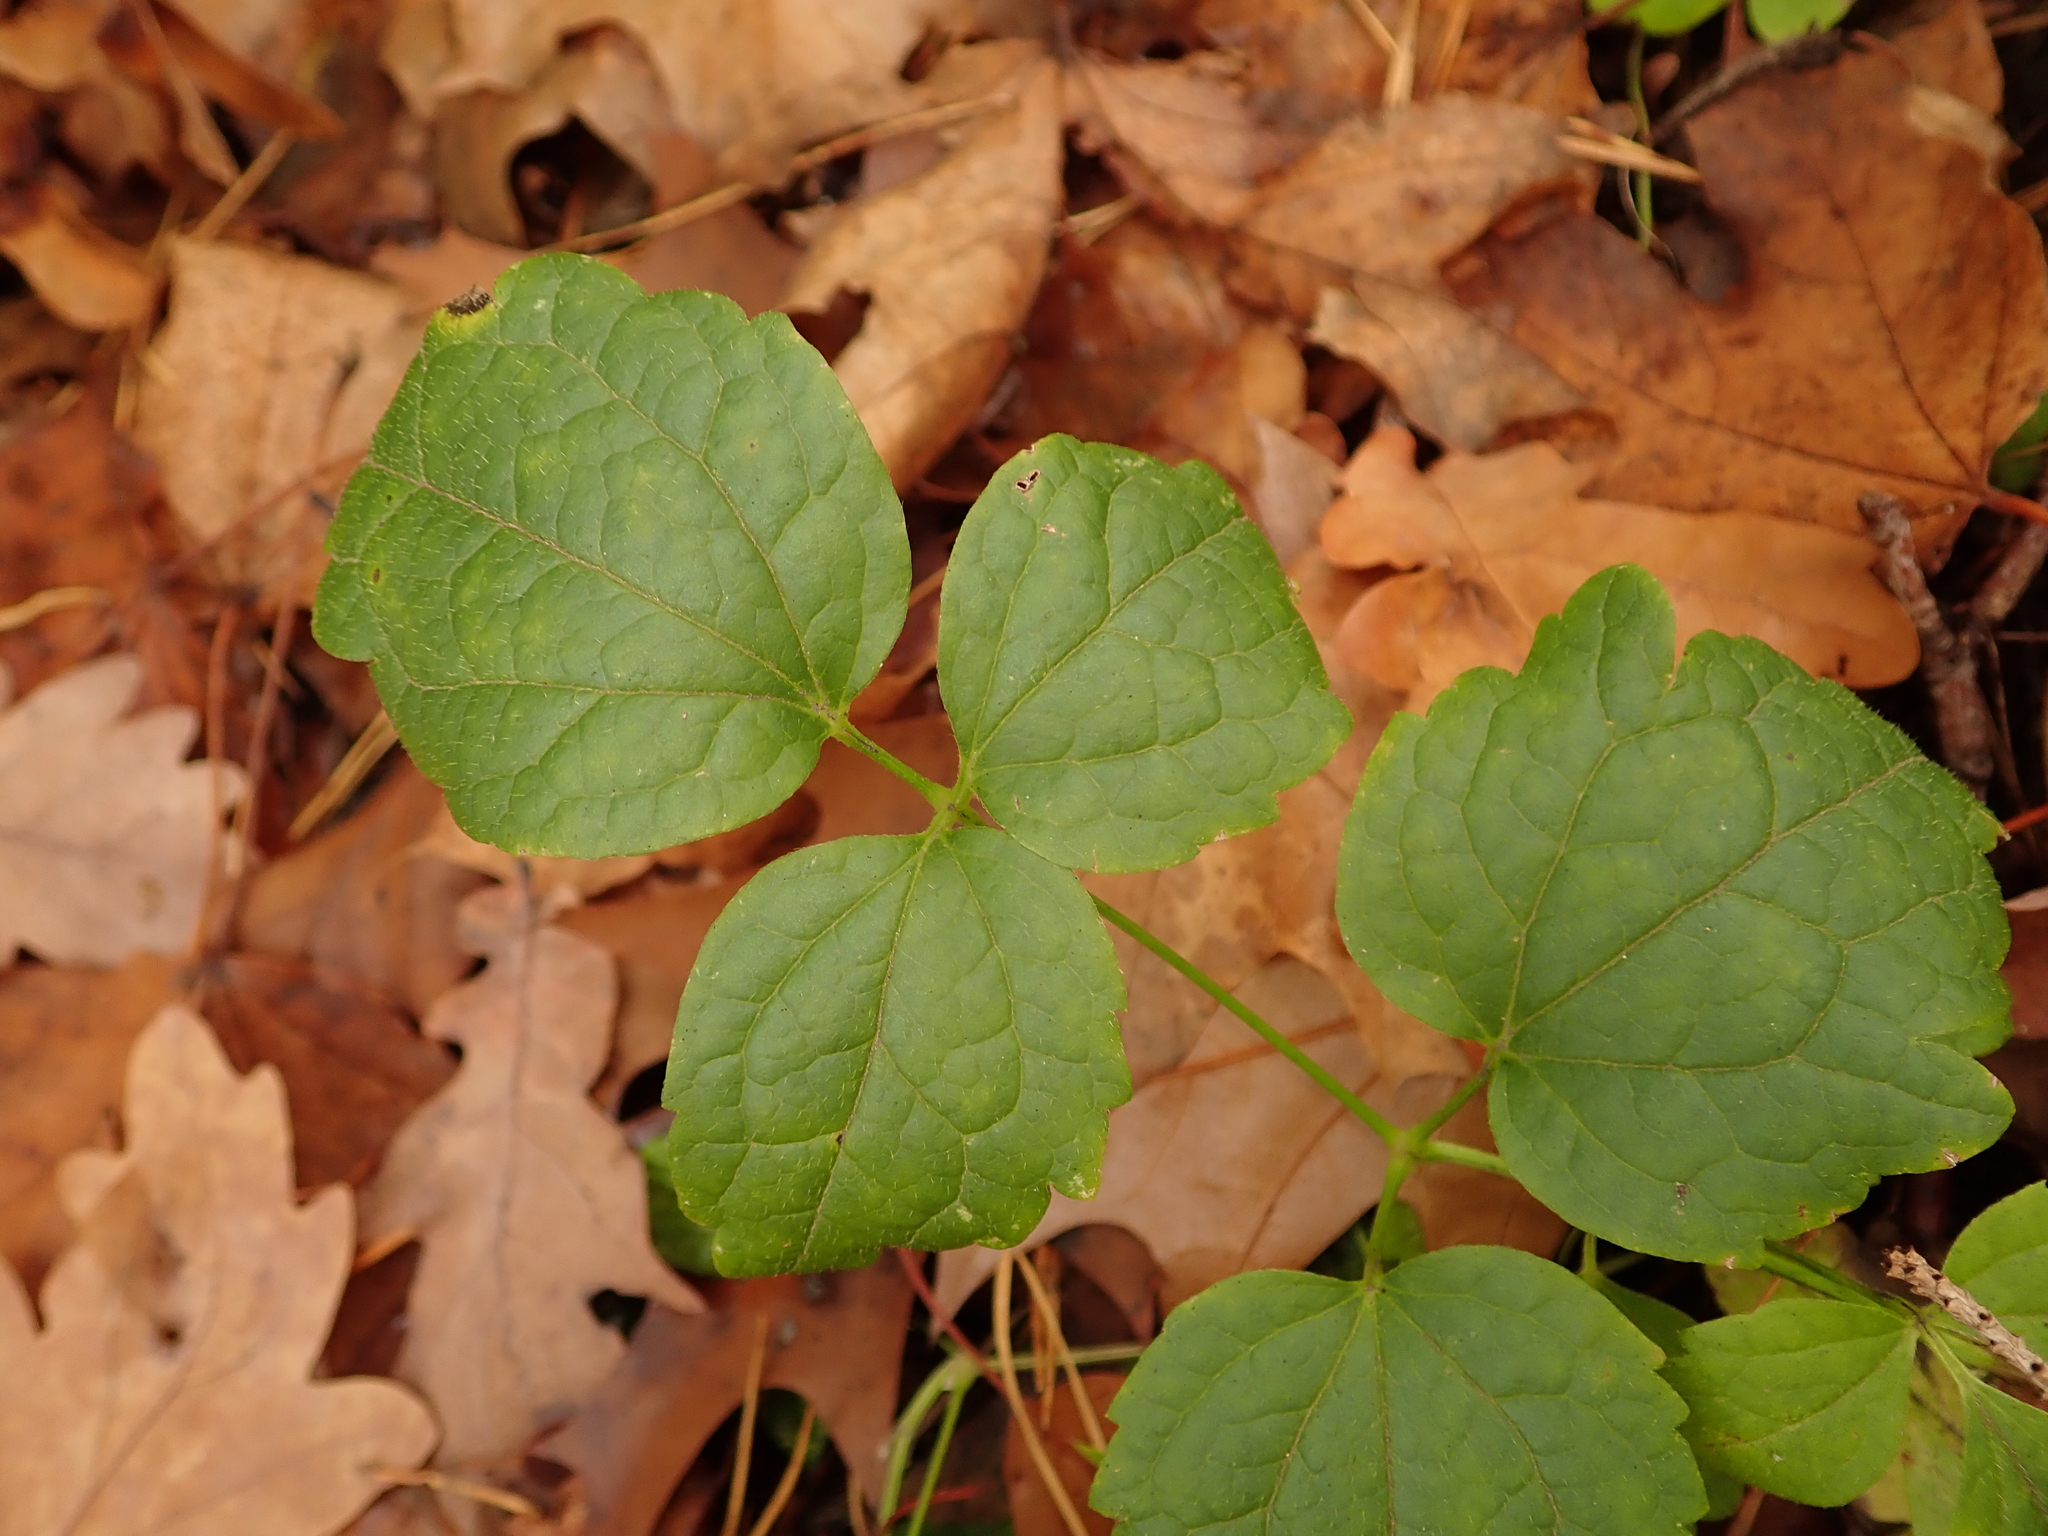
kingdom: Plantae
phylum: Tracheophyta
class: Magnoliopsida
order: Ranunculales
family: Ranunculaceae
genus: Clematis
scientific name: Clematis vitalba
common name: Evergreen clematis
